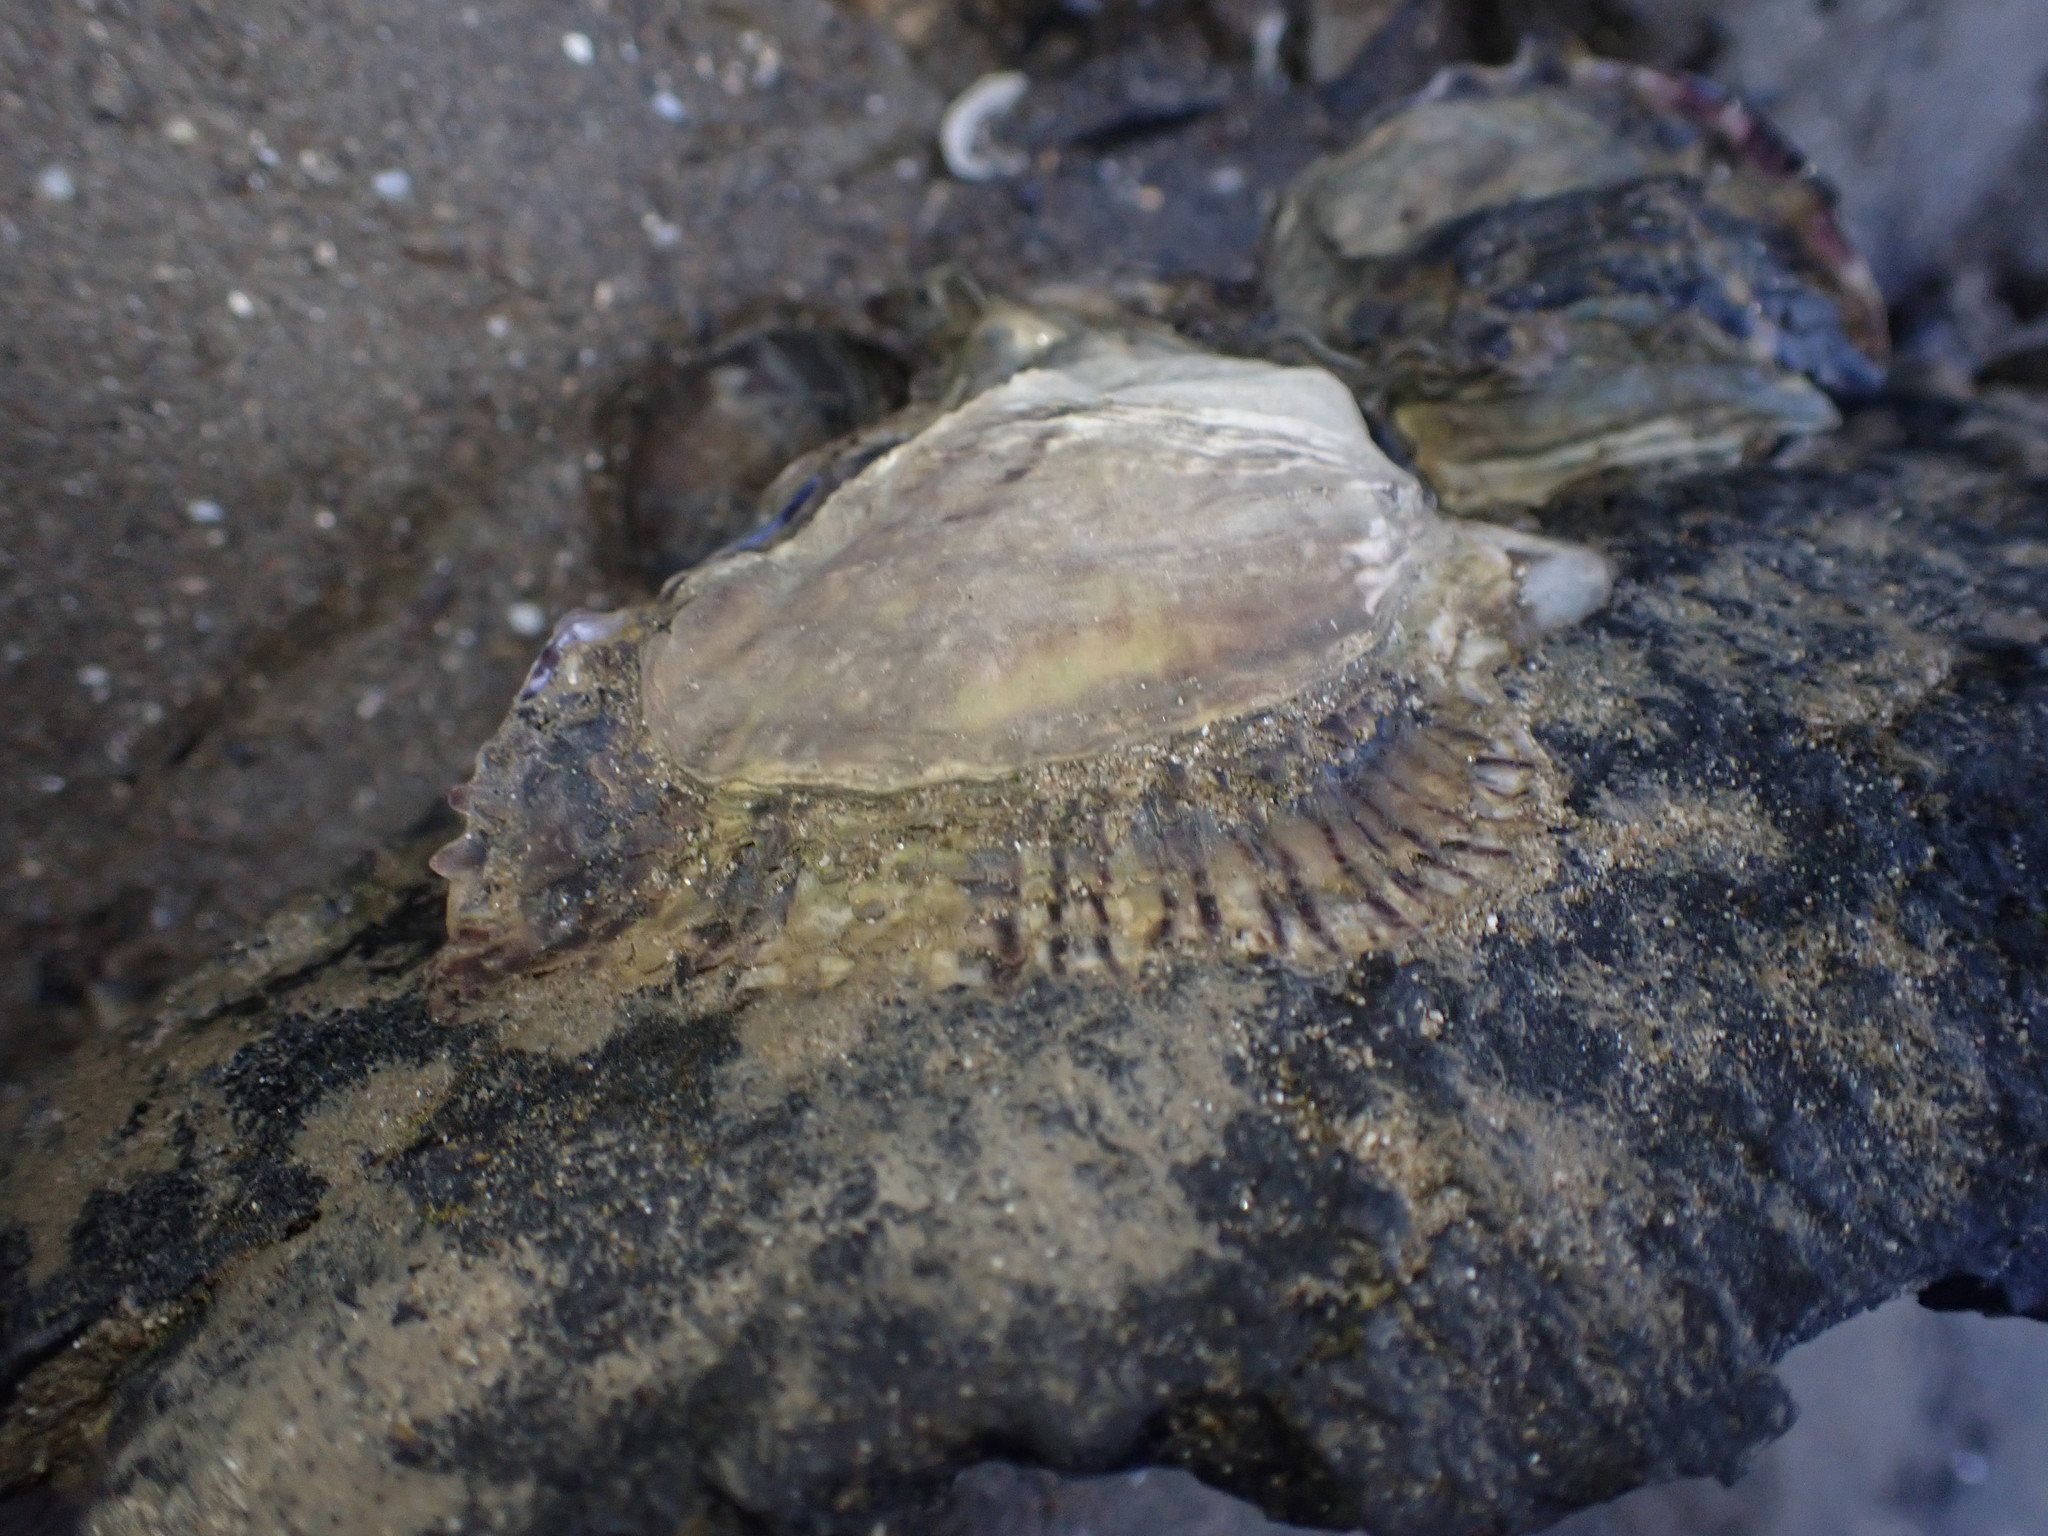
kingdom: Animalia
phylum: Mollusca
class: Bivalvia
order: Ostreida
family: Ostreidae
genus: Magallana
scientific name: Magallana gigas
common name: Pacific oyster
